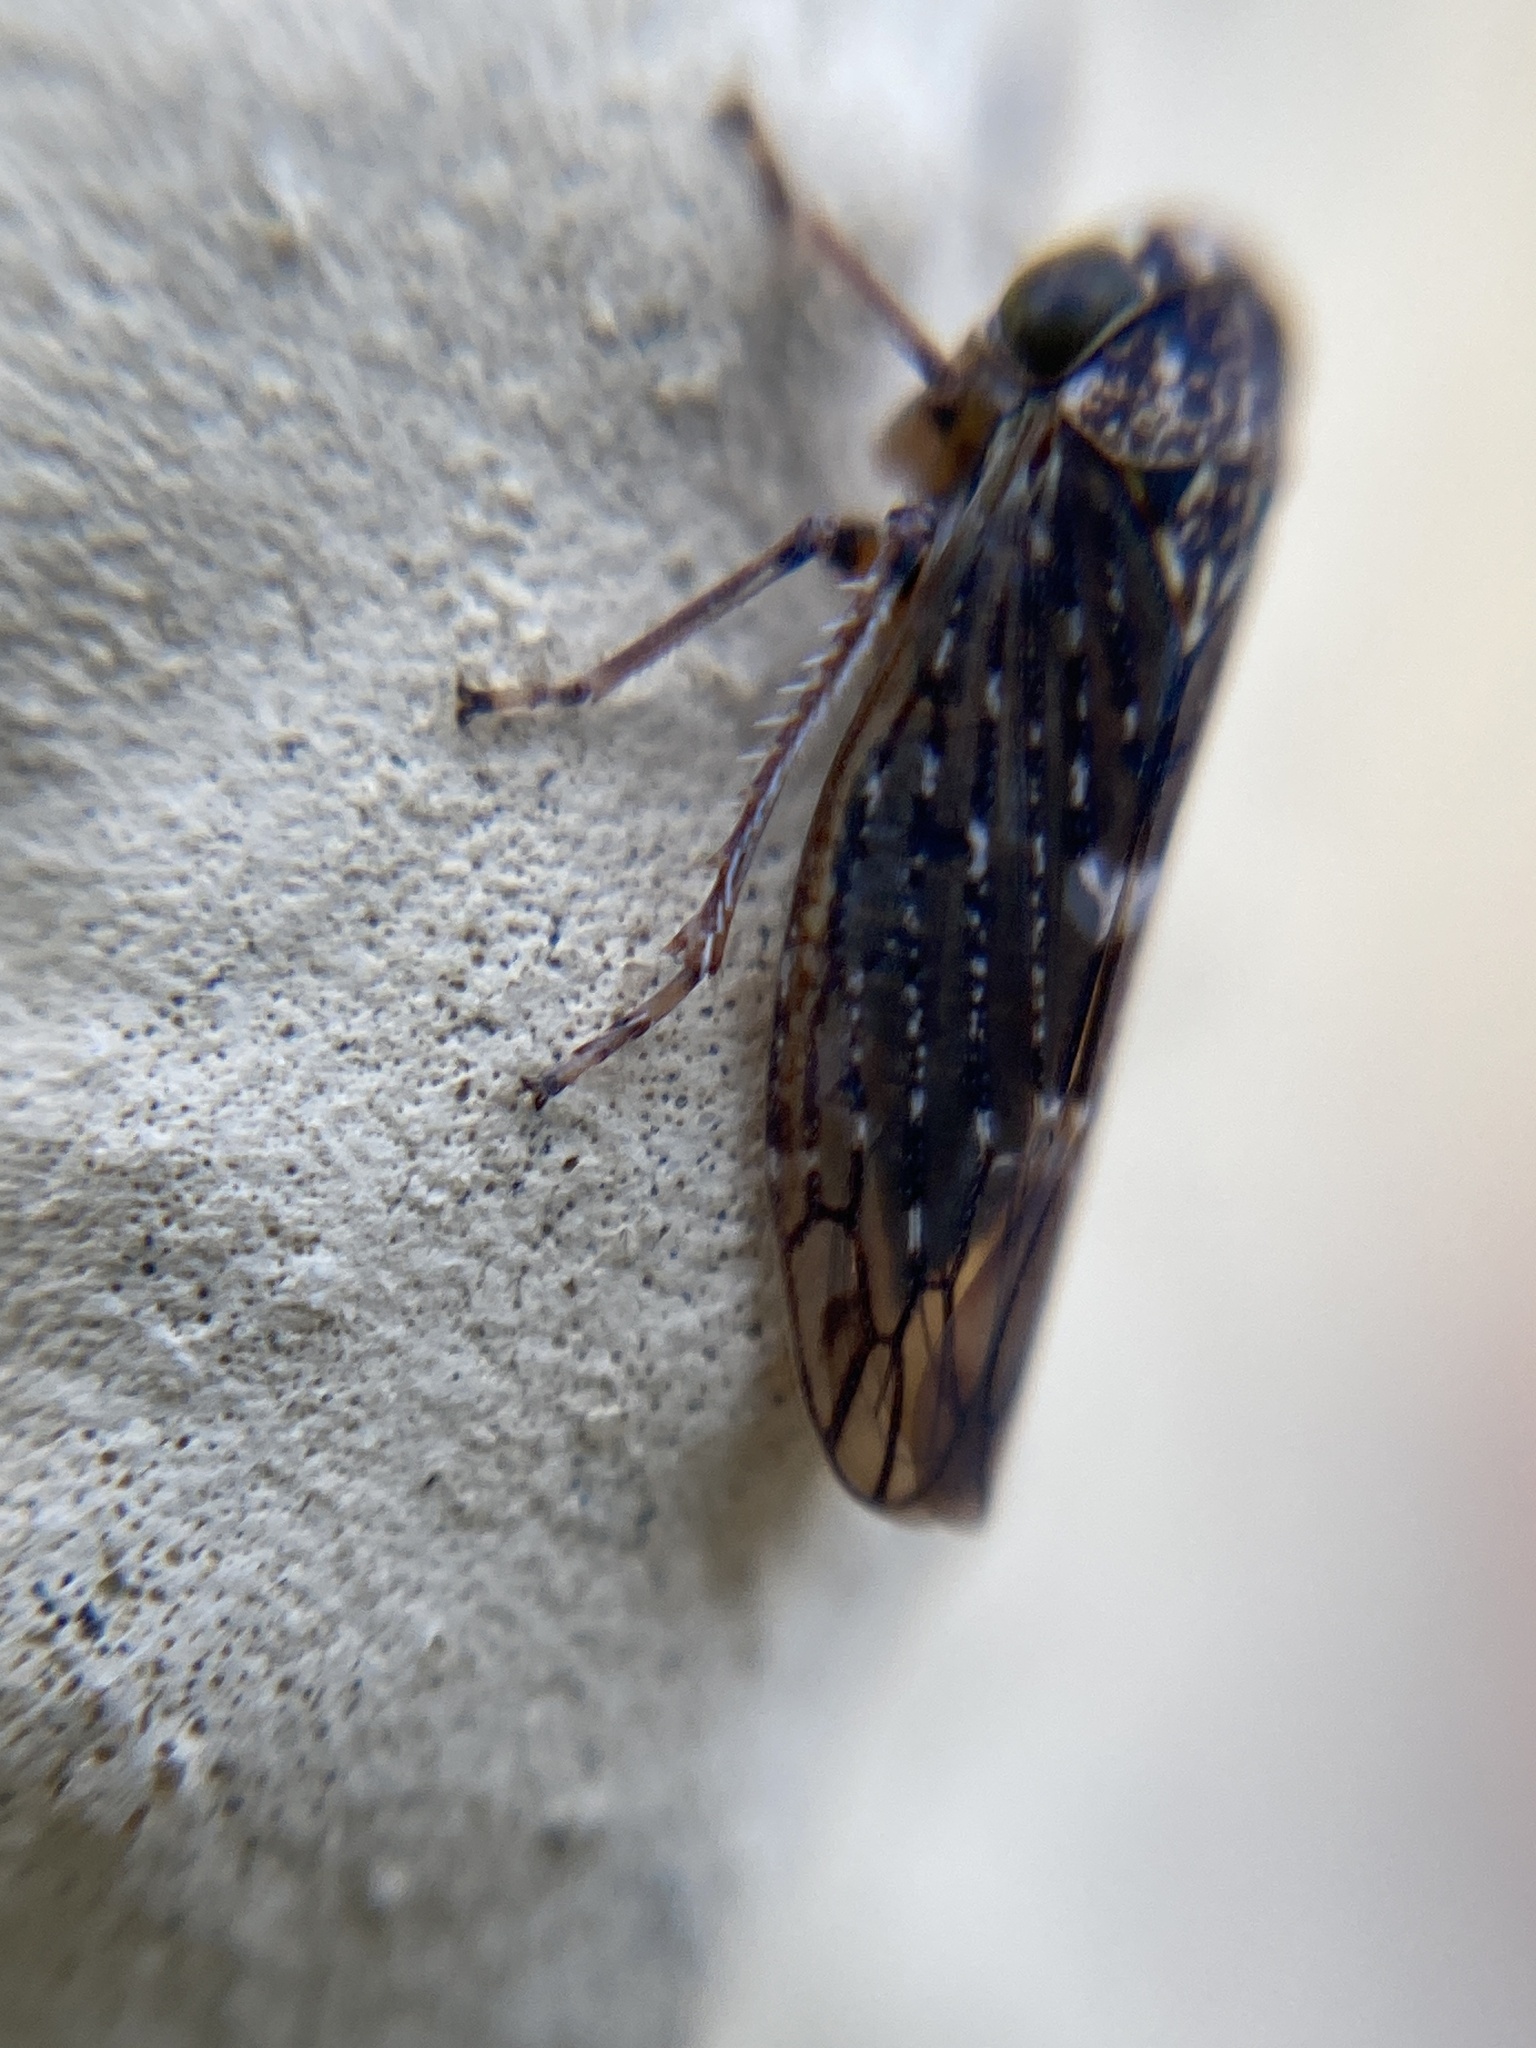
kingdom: Animalia
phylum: Arthropoda
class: Insecta
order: Hemiptera
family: Cicadellidae
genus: Acericerus
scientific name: Acericerus heydenii
